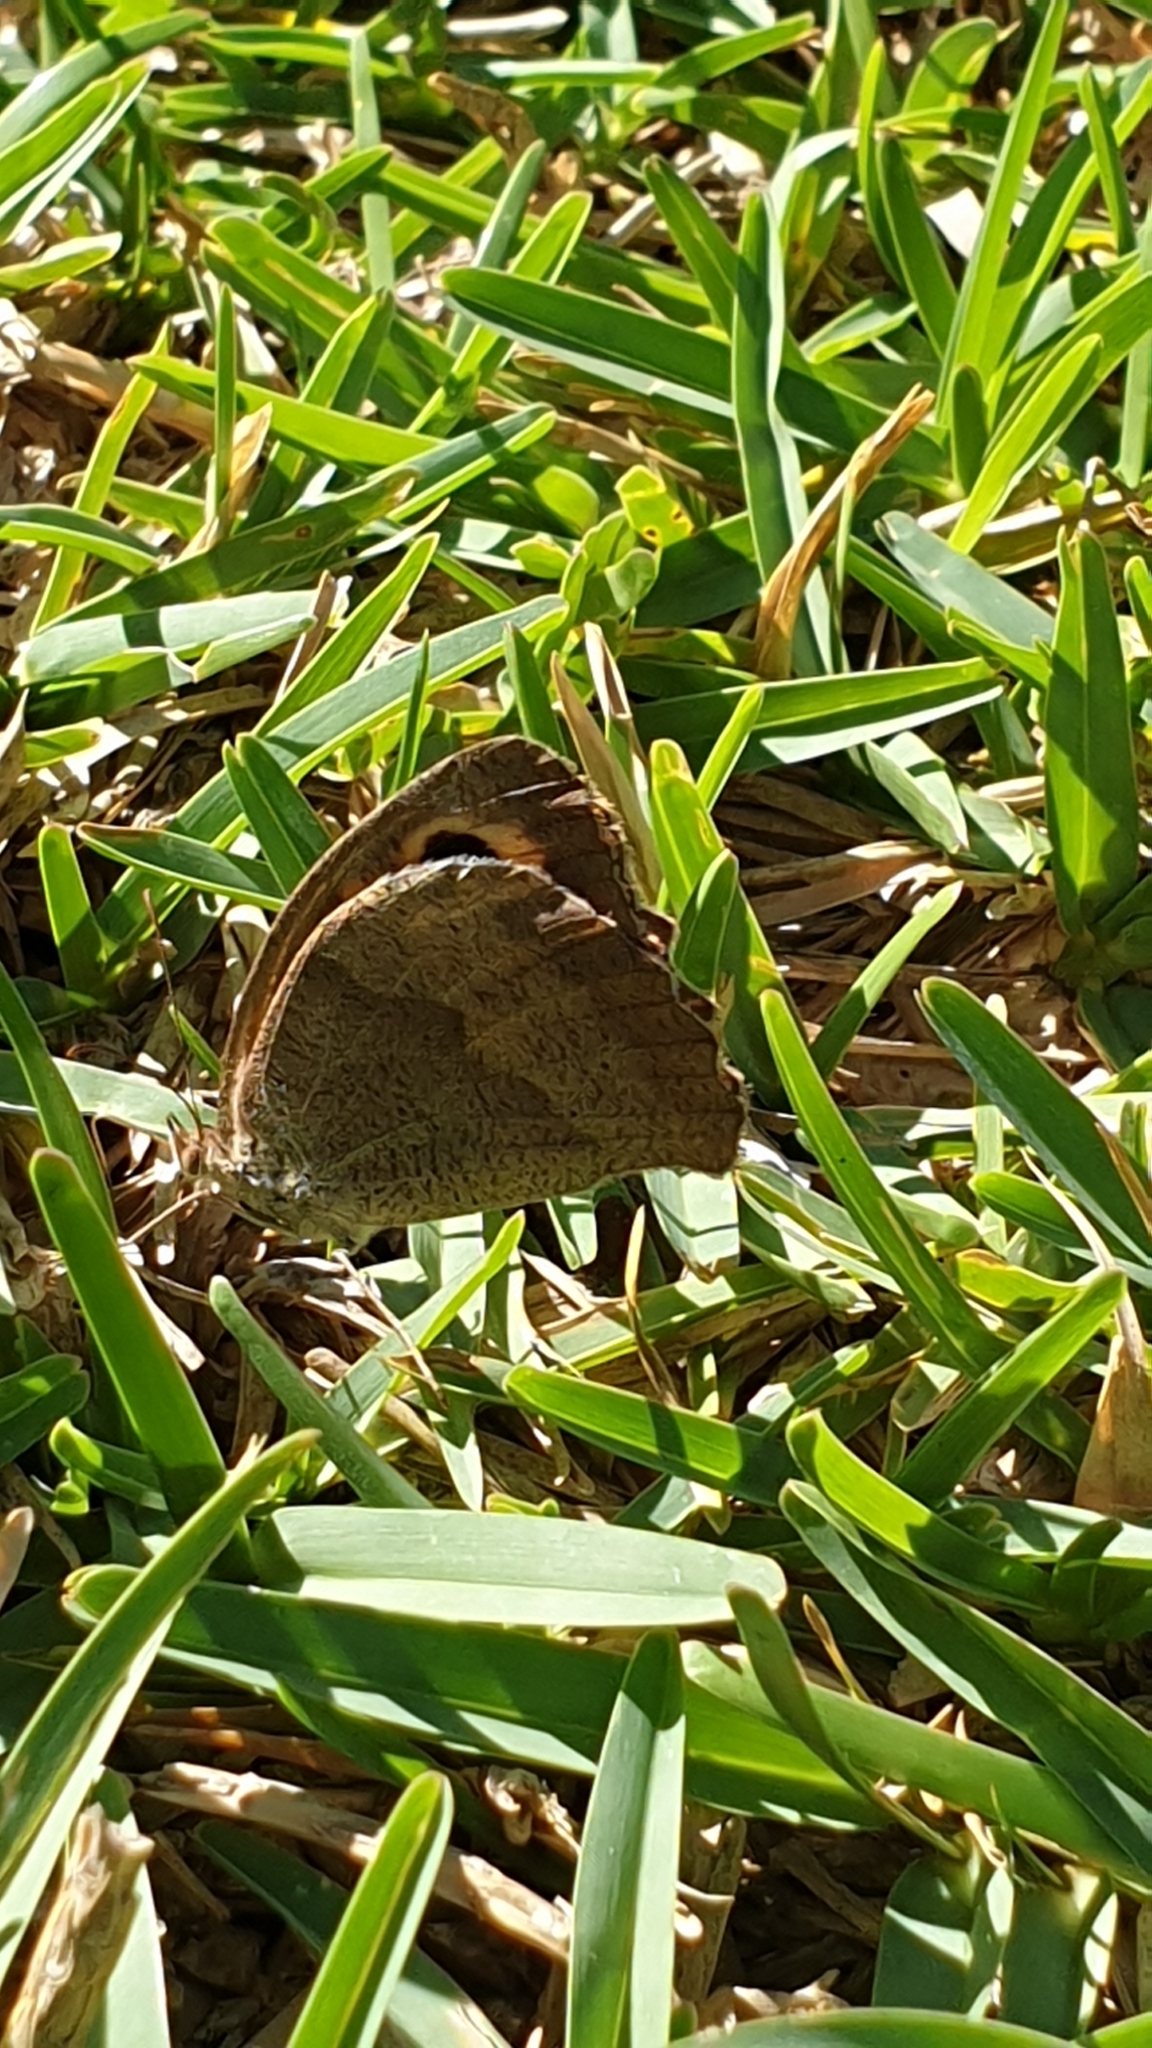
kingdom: Animalia
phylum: Arthropoda
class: Insecta
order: Lepidoptera
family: Nymphalidae
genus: Maniola
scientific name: Maniola jurtina
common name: Meadow brown
